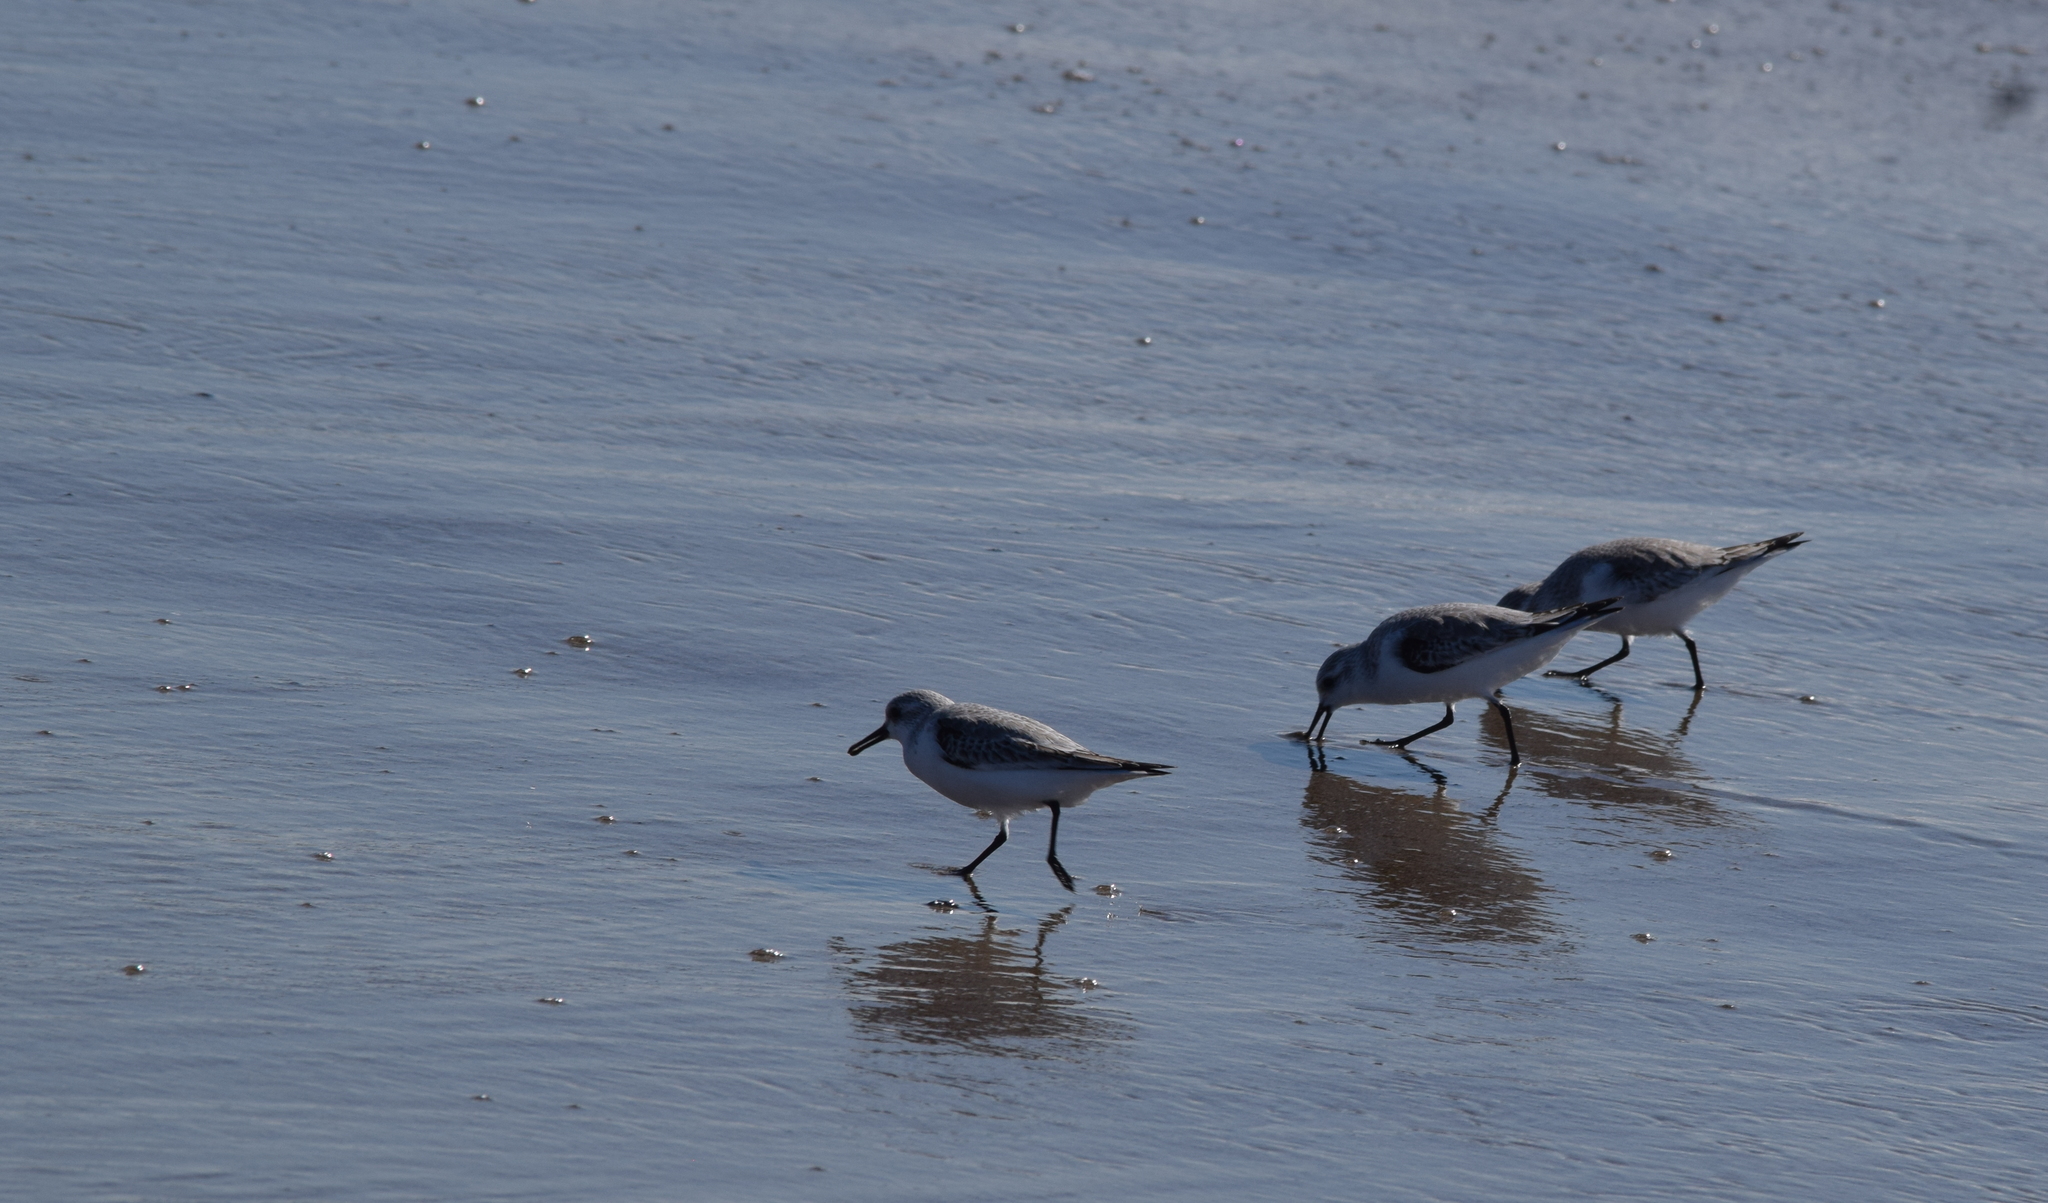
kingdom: Animalia
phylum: Chordata
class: Aves
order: Charadriiformes
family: Scolopacidae
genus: Calidris
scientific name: Calidris alba
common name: Sanderling
